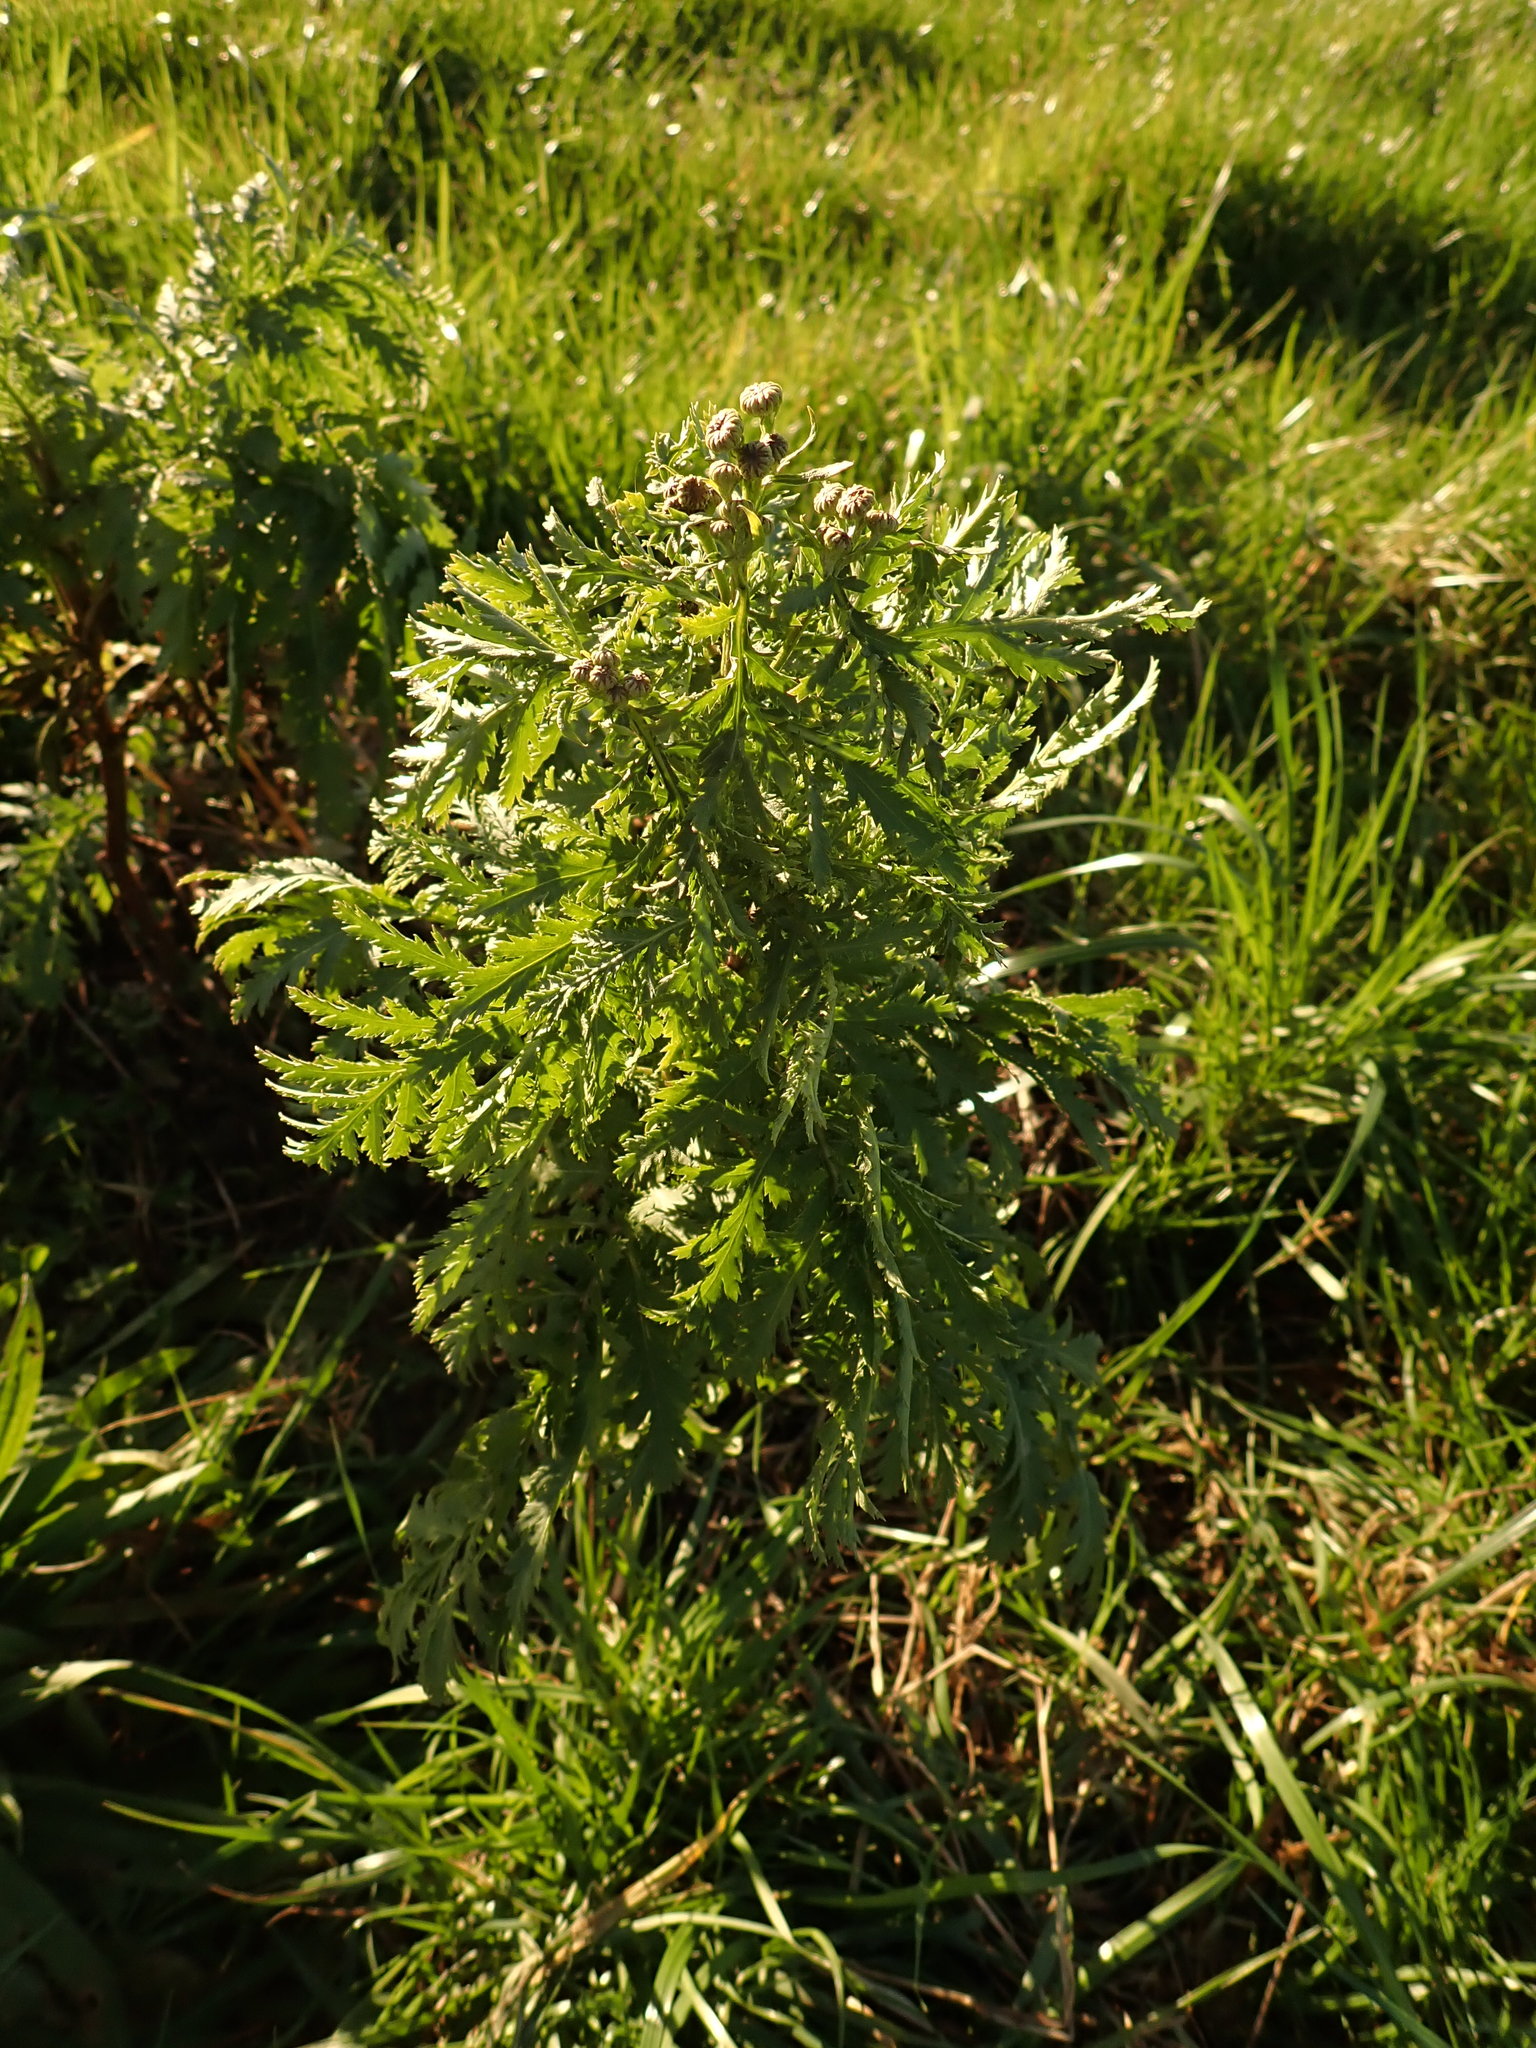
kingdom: Plantae
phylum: Tracheophyta
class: Magnoliopsida
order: Asterales
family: Asteraceae
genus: Jacobaea
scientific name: Jacobaea vulgaris
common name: Stinking willie
